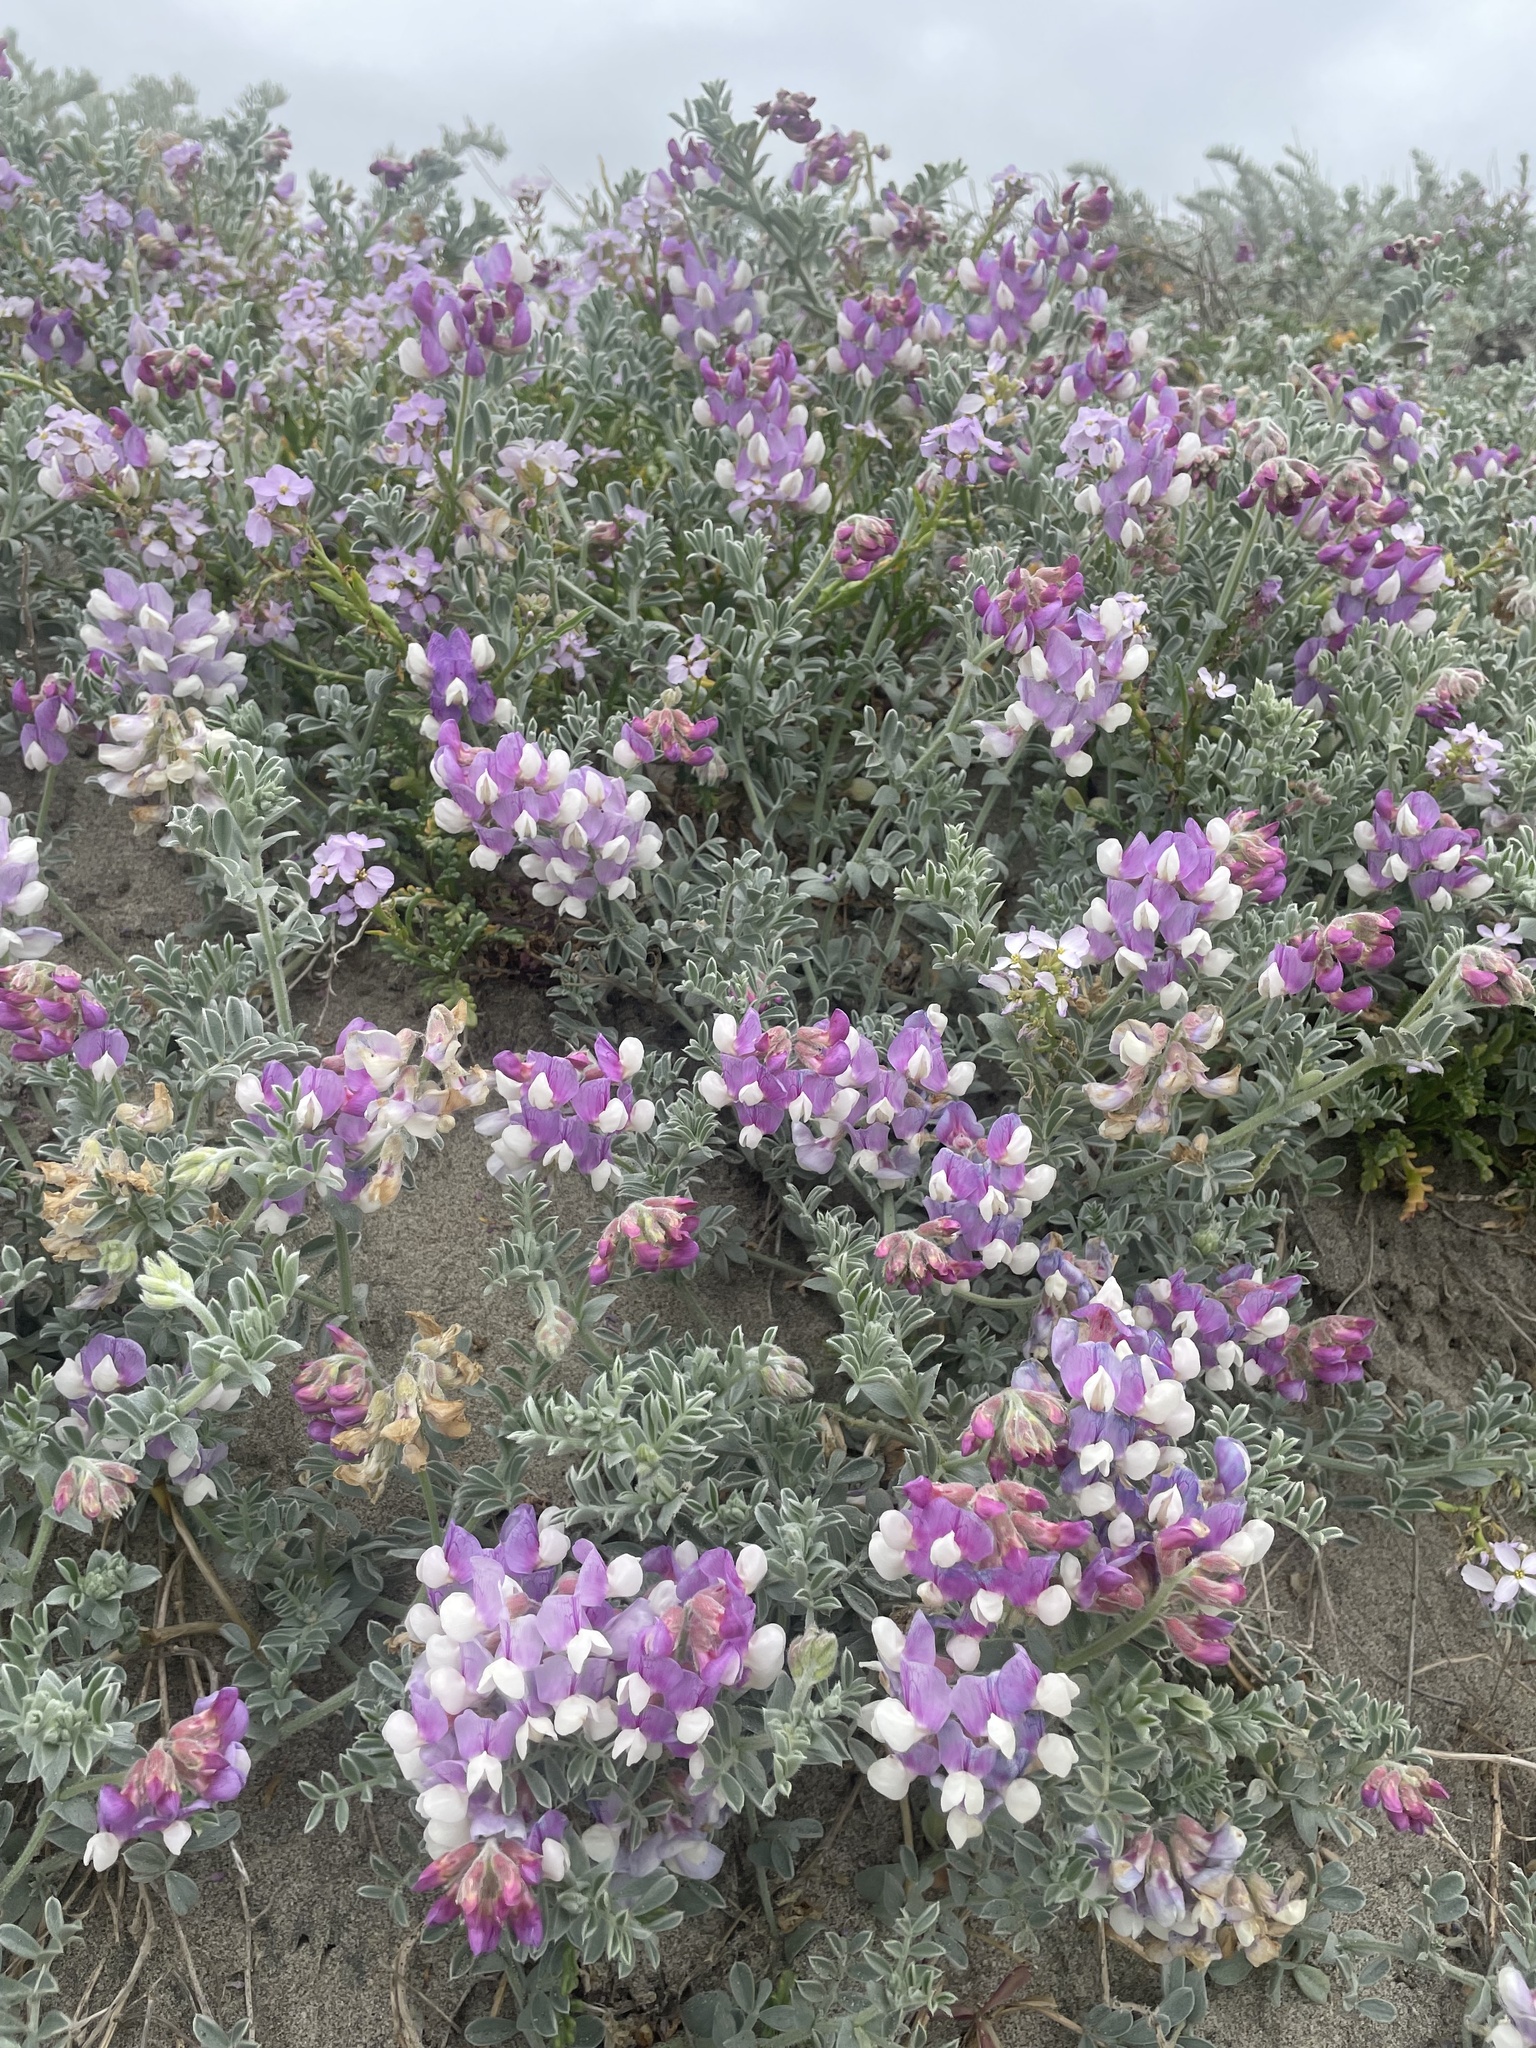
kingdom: Plantae
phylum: Tracheophyta
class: Magnoliopsida
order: Fabales
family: Fabaceae
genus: Lathyrus
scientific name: Lathyrus littoralis
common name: Dune sweet pea
